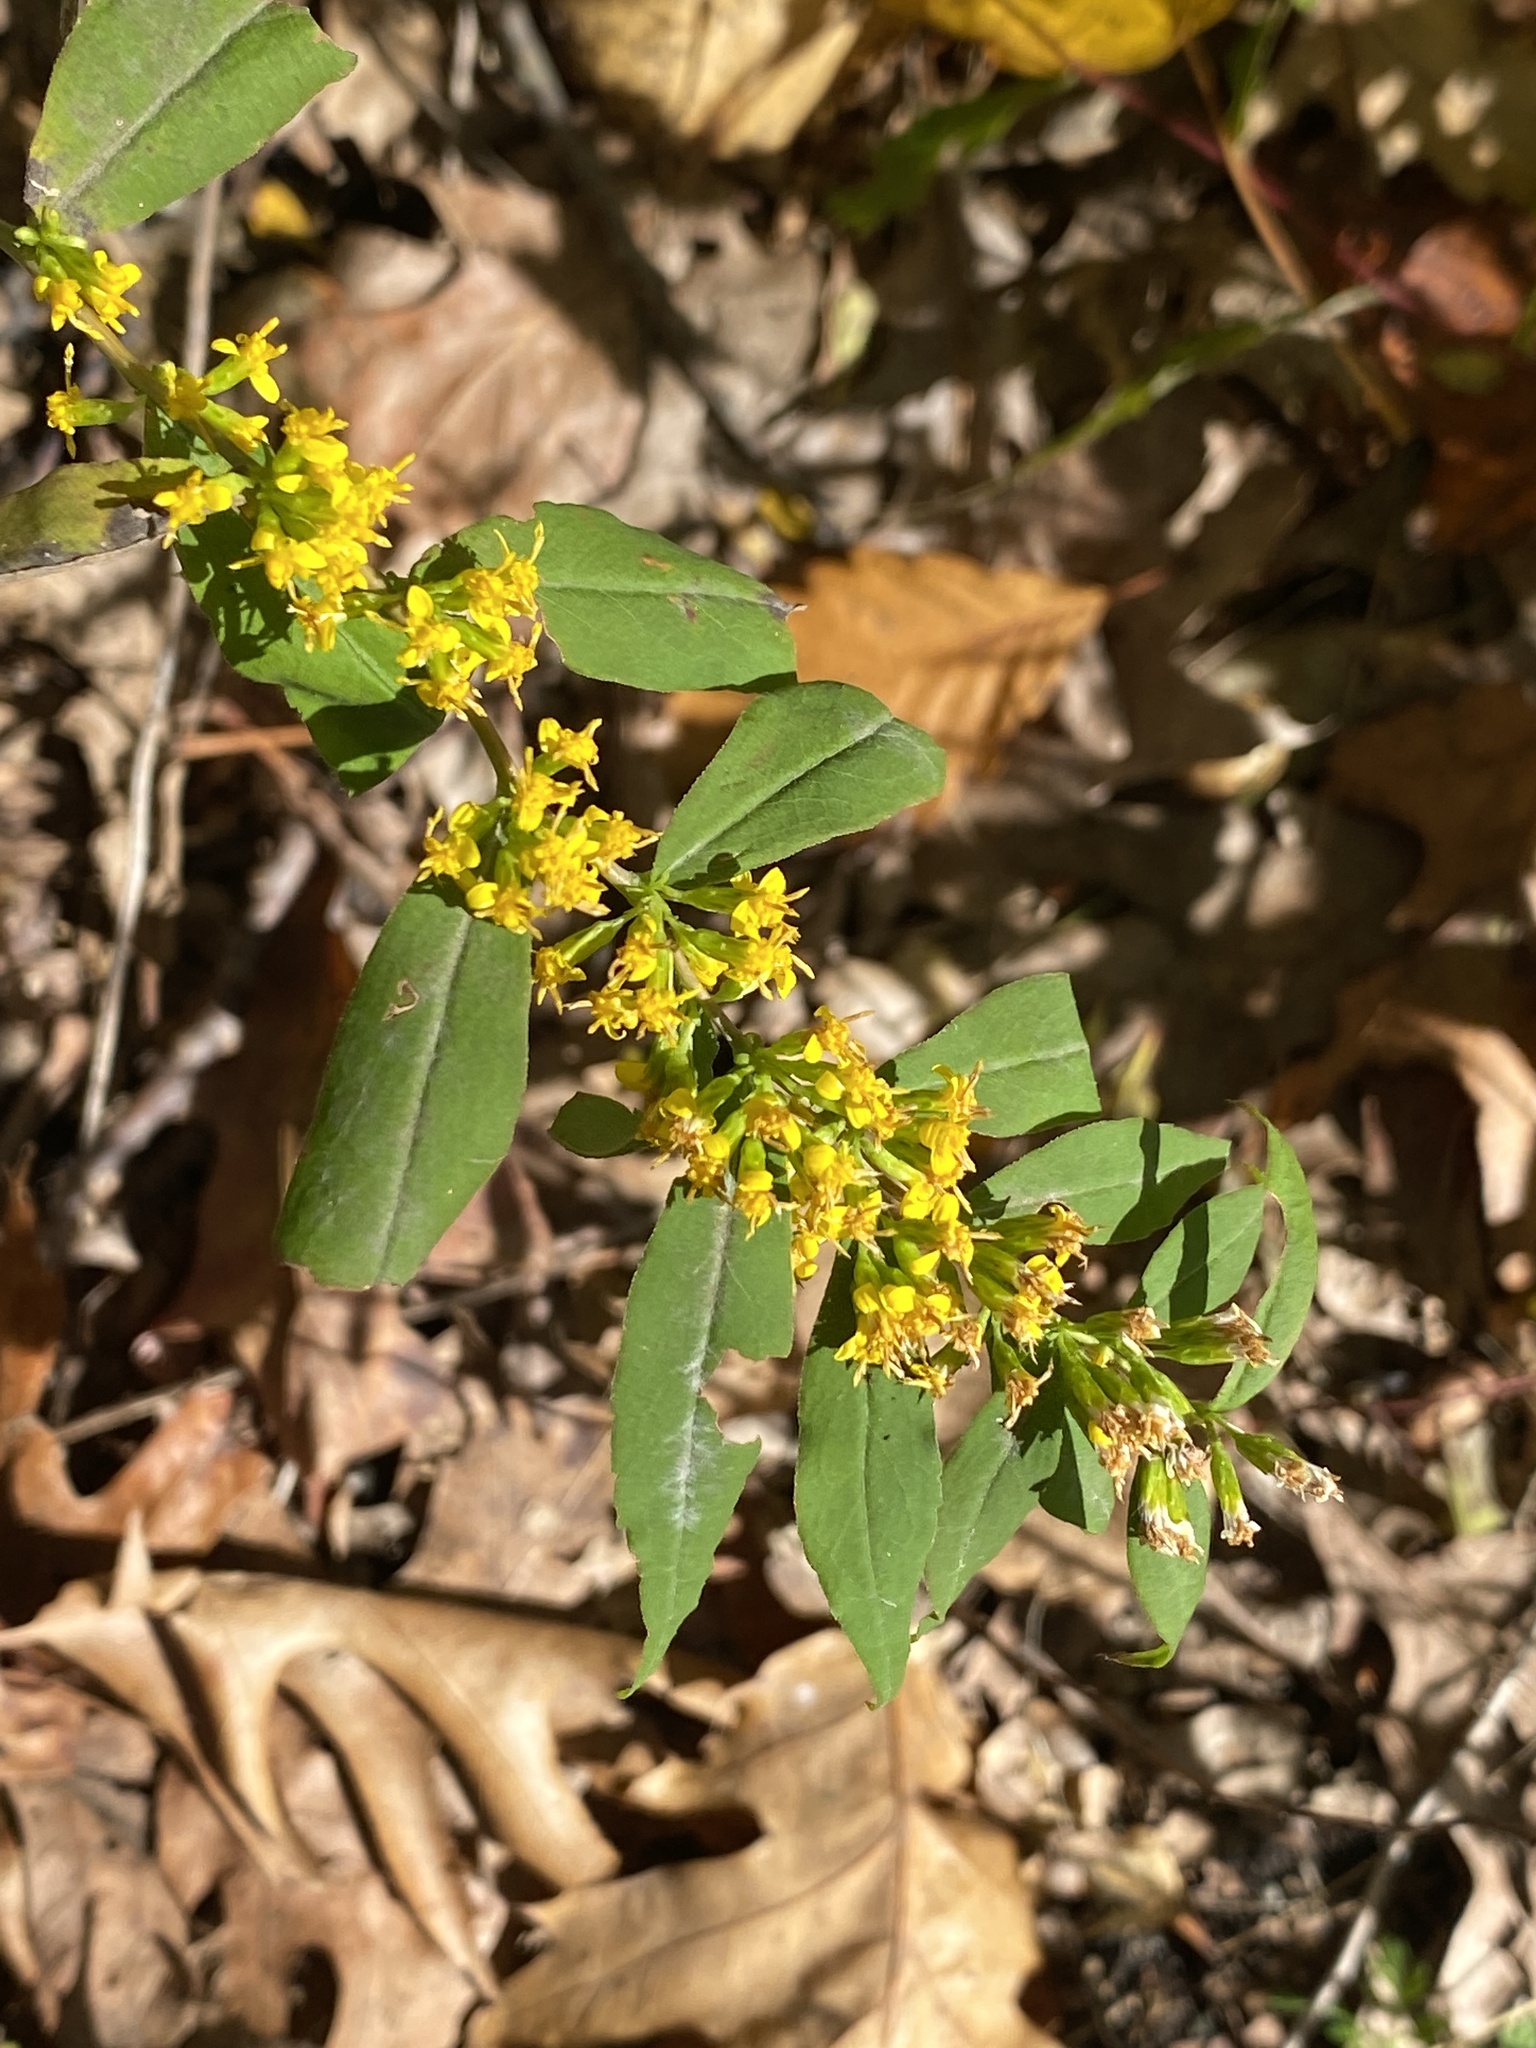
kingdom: Plantae
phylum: Tracheophyta
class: Magnoliopsida
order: Asterales
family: Asteraceae
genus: Solidago
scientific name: Solidago caesia
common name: Woodland goldenrod
